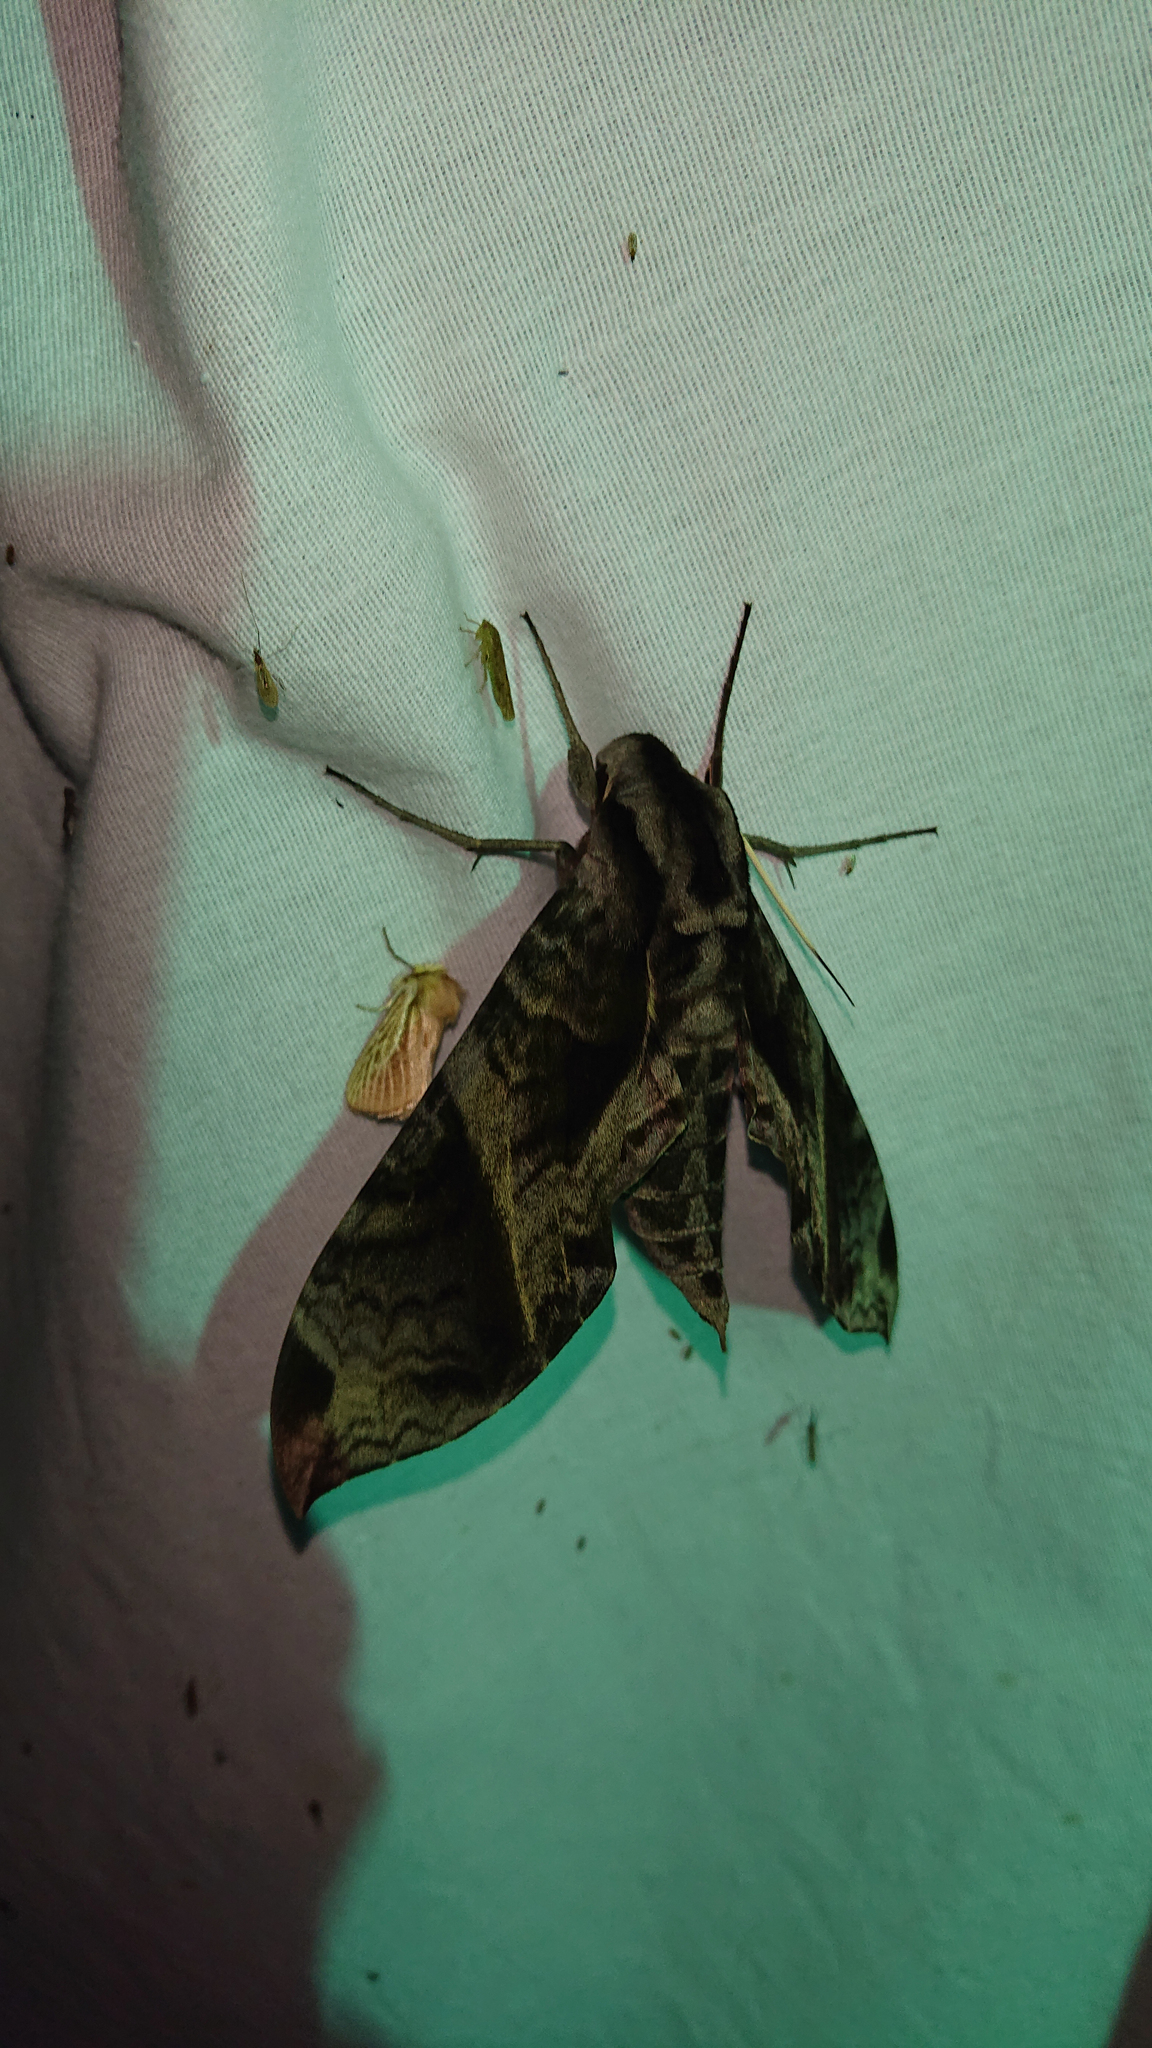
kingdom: Animalia
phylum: Arthropoda
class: Insecta
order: Lepidoptera
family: Sphingidae
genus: Eumorpha
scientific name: Eumorpha anchemolus
